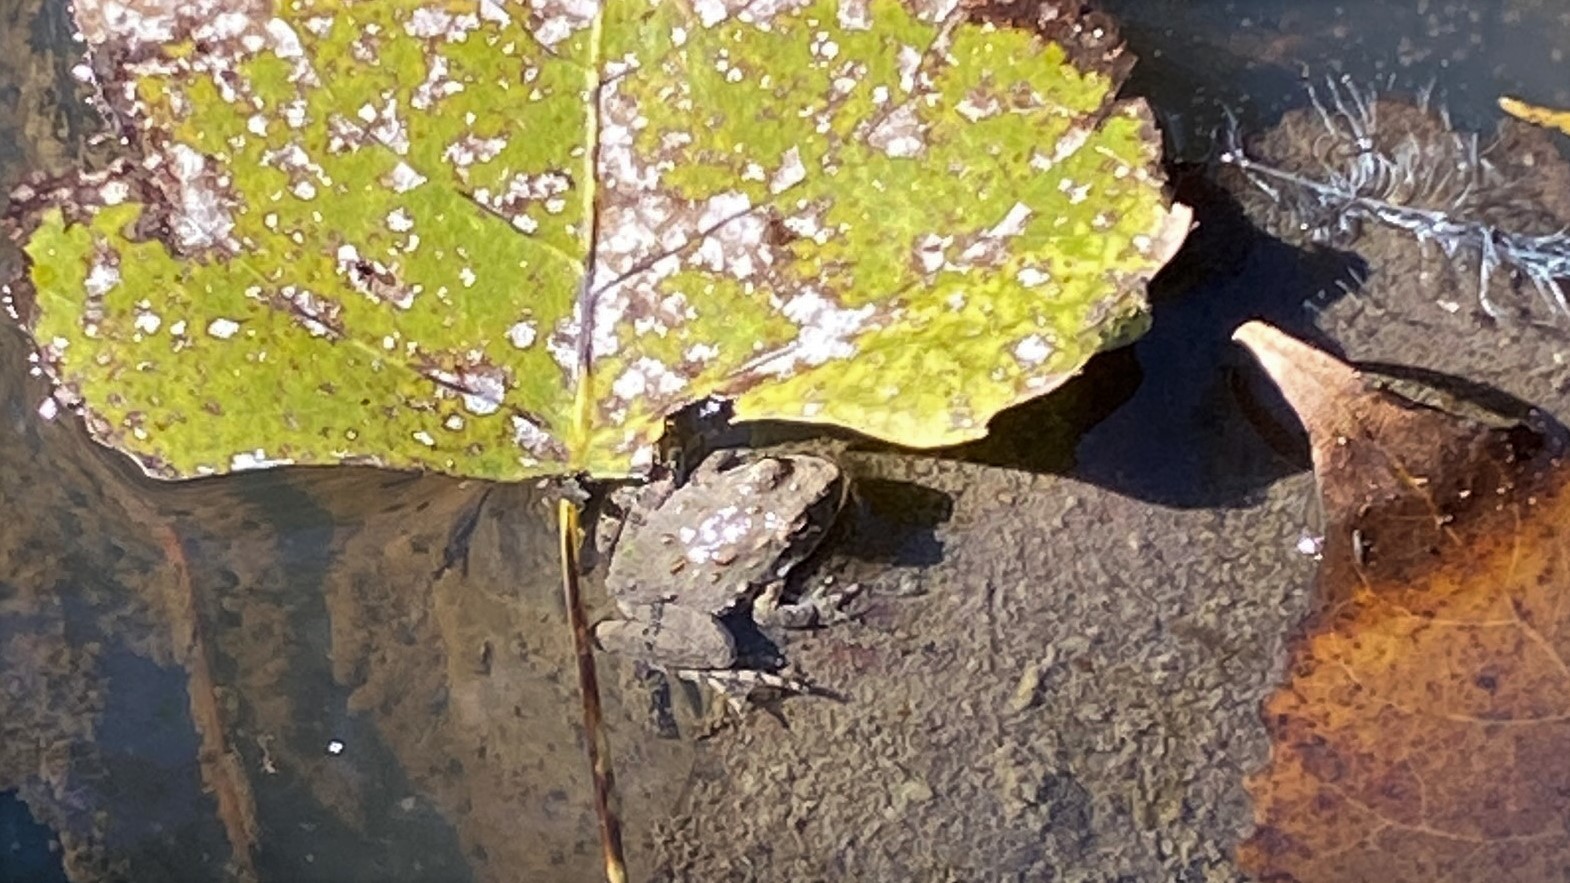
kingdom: Animalia
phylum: Chordata
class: Amphibia
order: Anura
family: Hylidae
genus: Acris
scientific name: Acris blanchardi
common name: Blanchard's cricket frog
